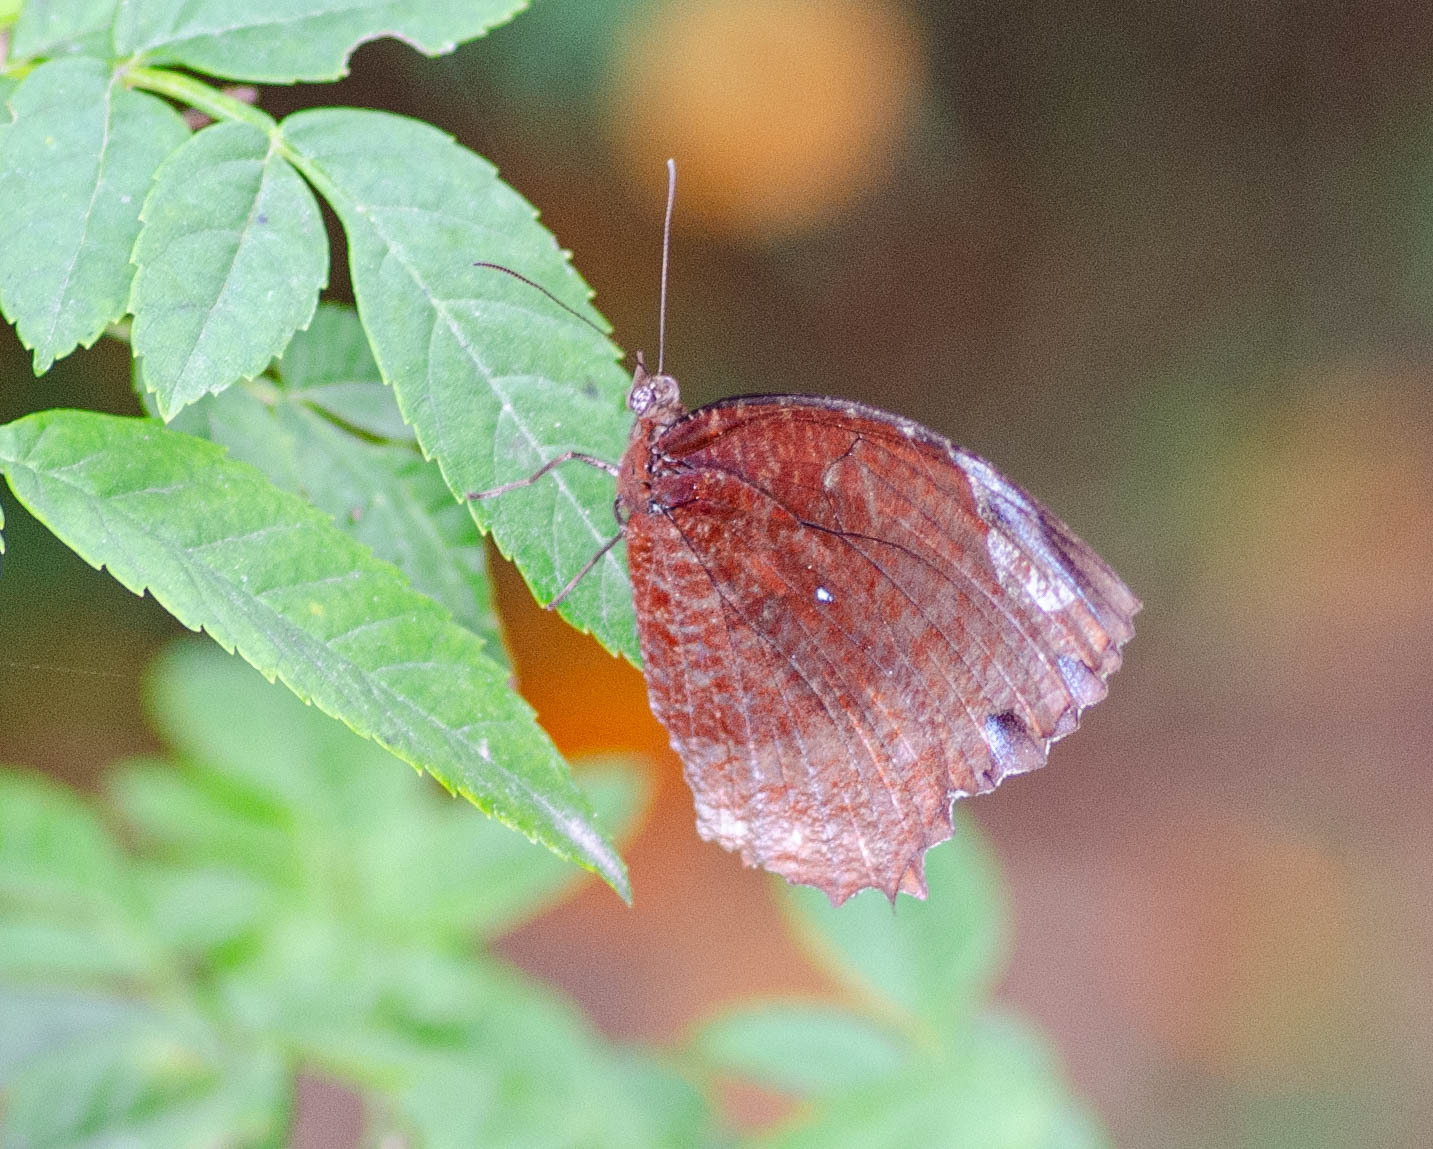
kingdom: Animalia
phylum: Arthropoda
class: Insecta
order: Lepidoptera
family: Nymphalidae
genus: Elymnias
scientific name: Elymnias hypermnestra
